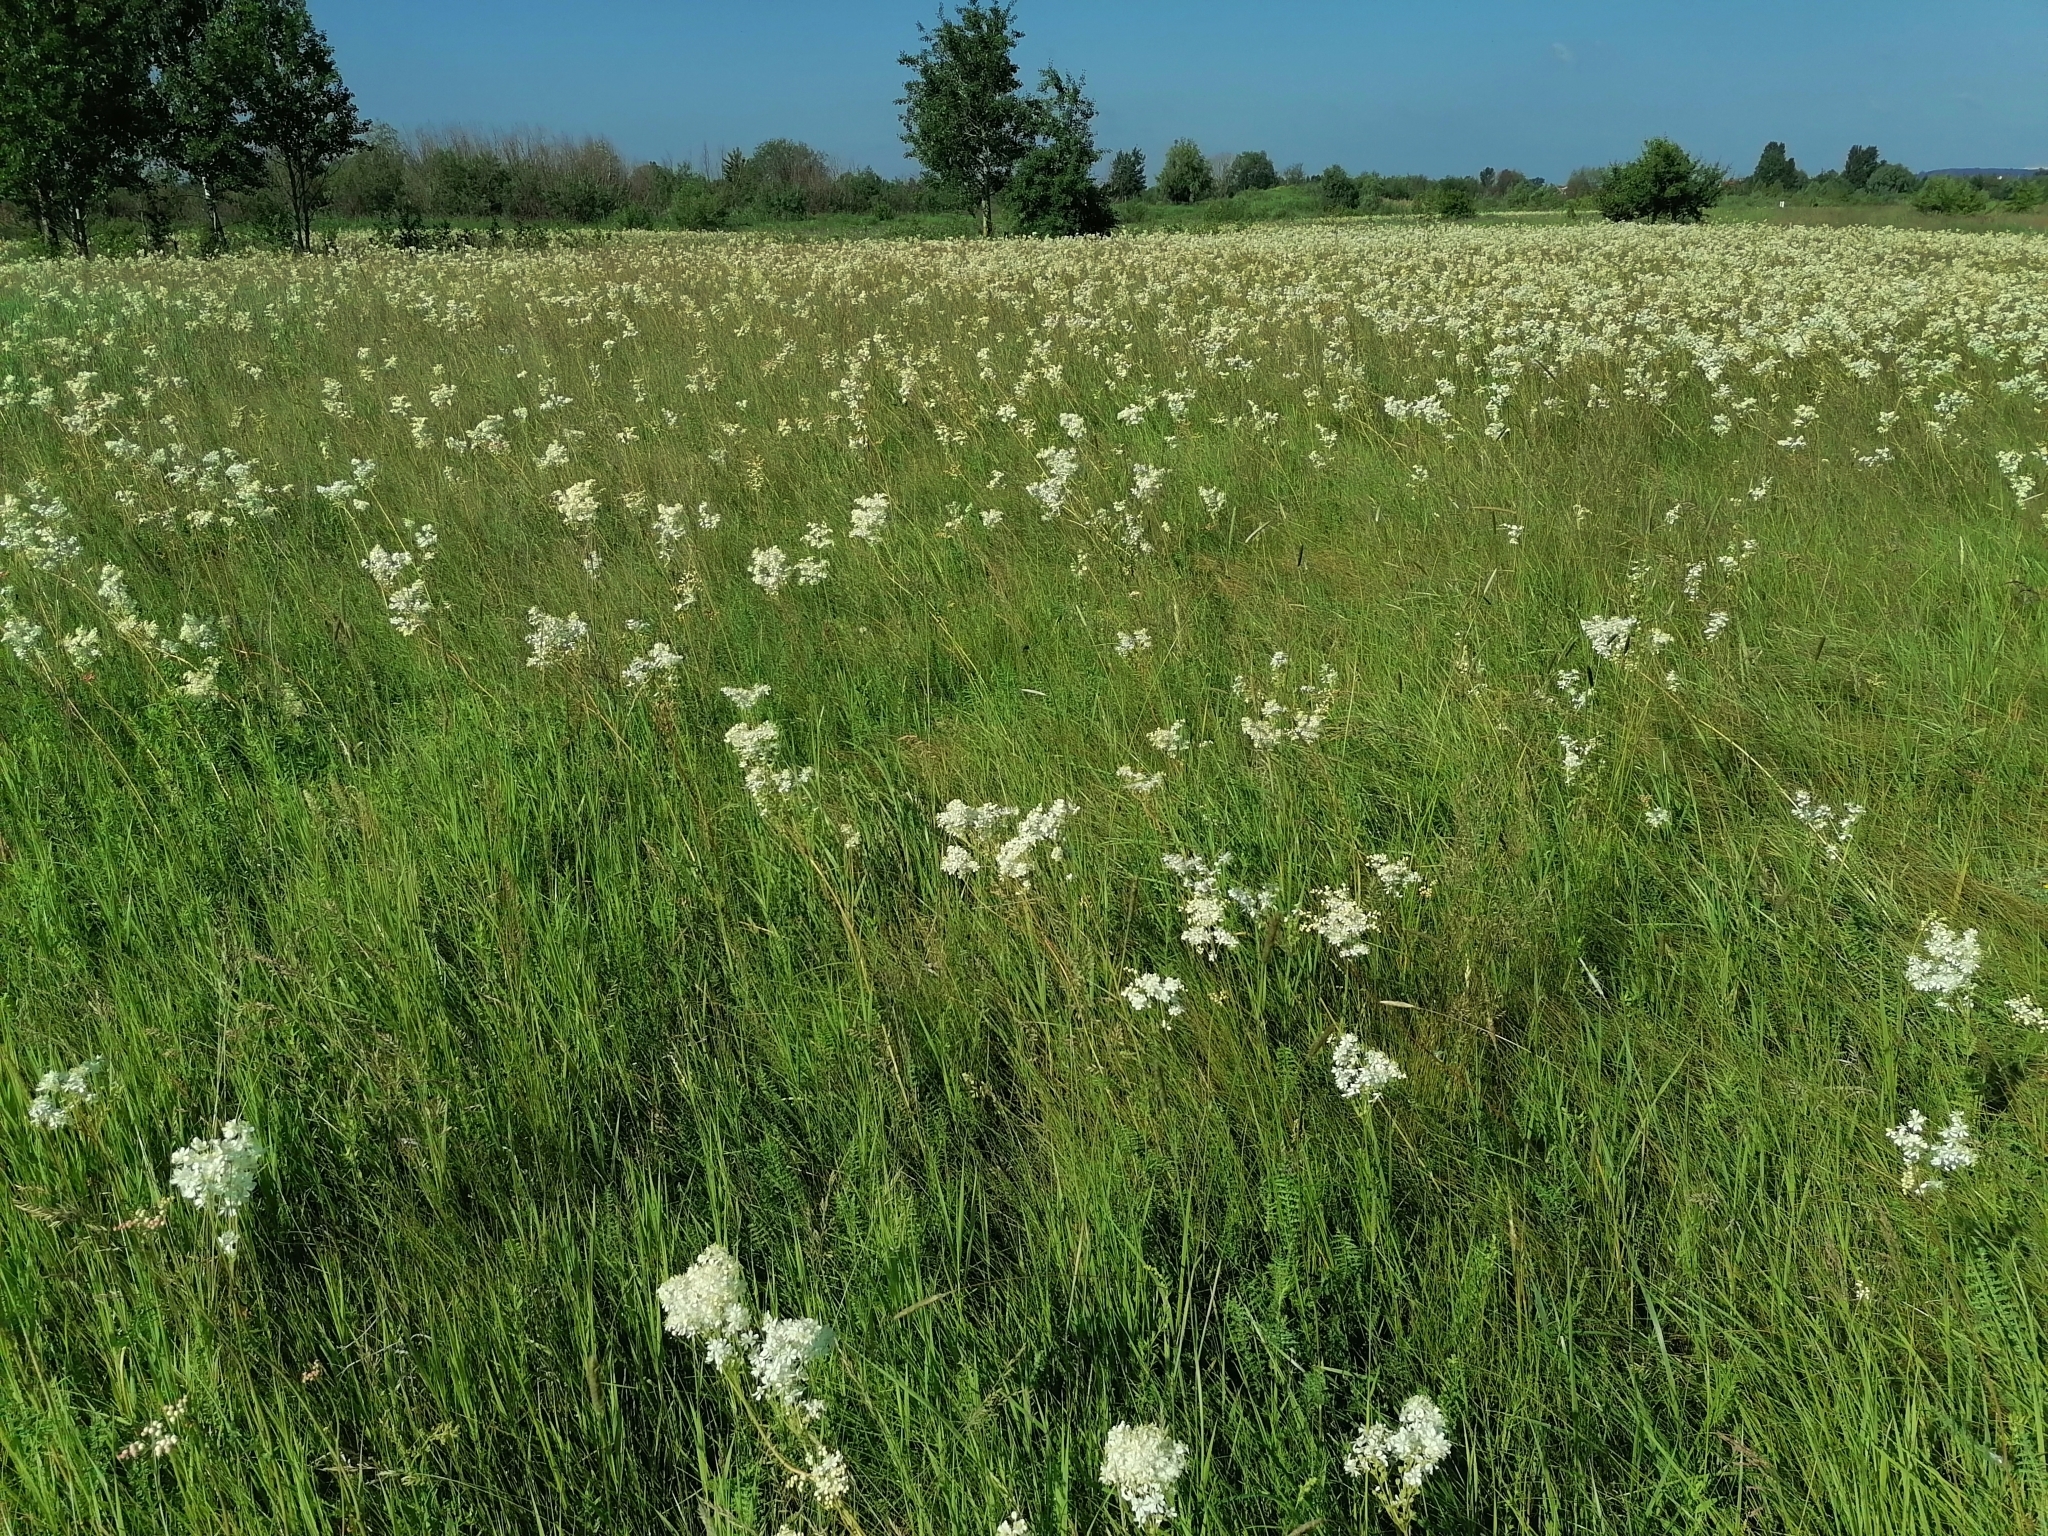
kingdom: Plantae
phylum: Tracheophyta
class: Magnoliopsida
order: Rosales
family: Rosaceae
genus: Filipendula
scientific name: Filipendula vulgaris
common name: Dropwort
